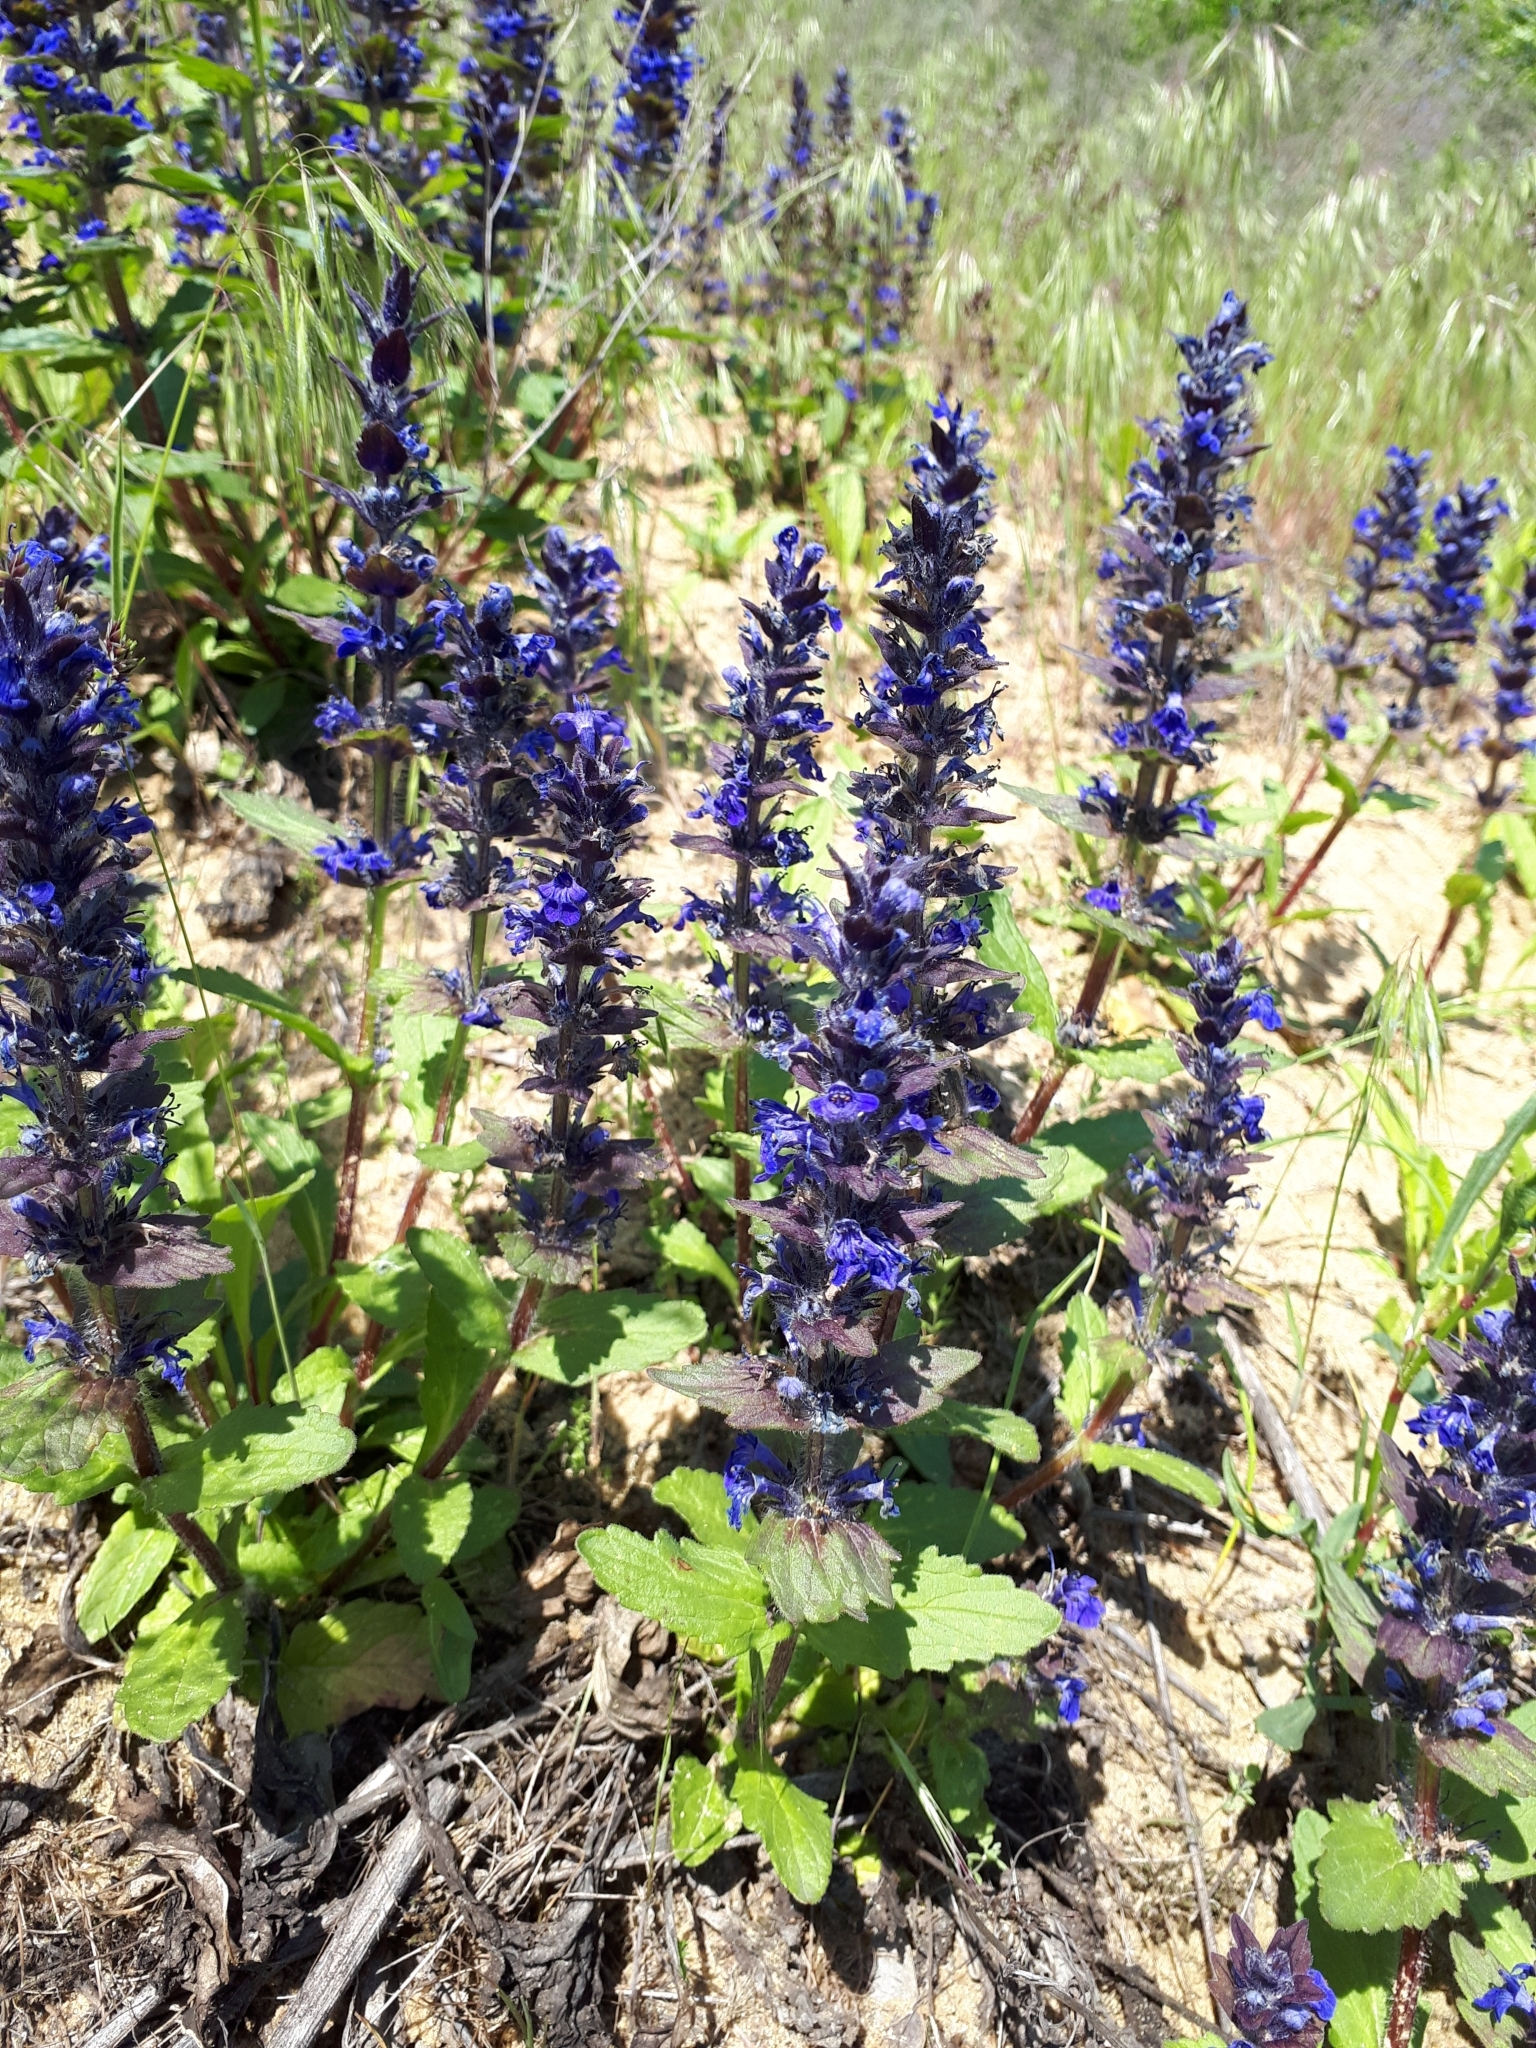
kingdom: Plantae
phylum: Tracheophyta
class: Magnoliopsida
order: Lamiales
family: Lamiaceae
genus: Ajuga
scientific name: Ajuga genevensis
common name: Blue bugle
